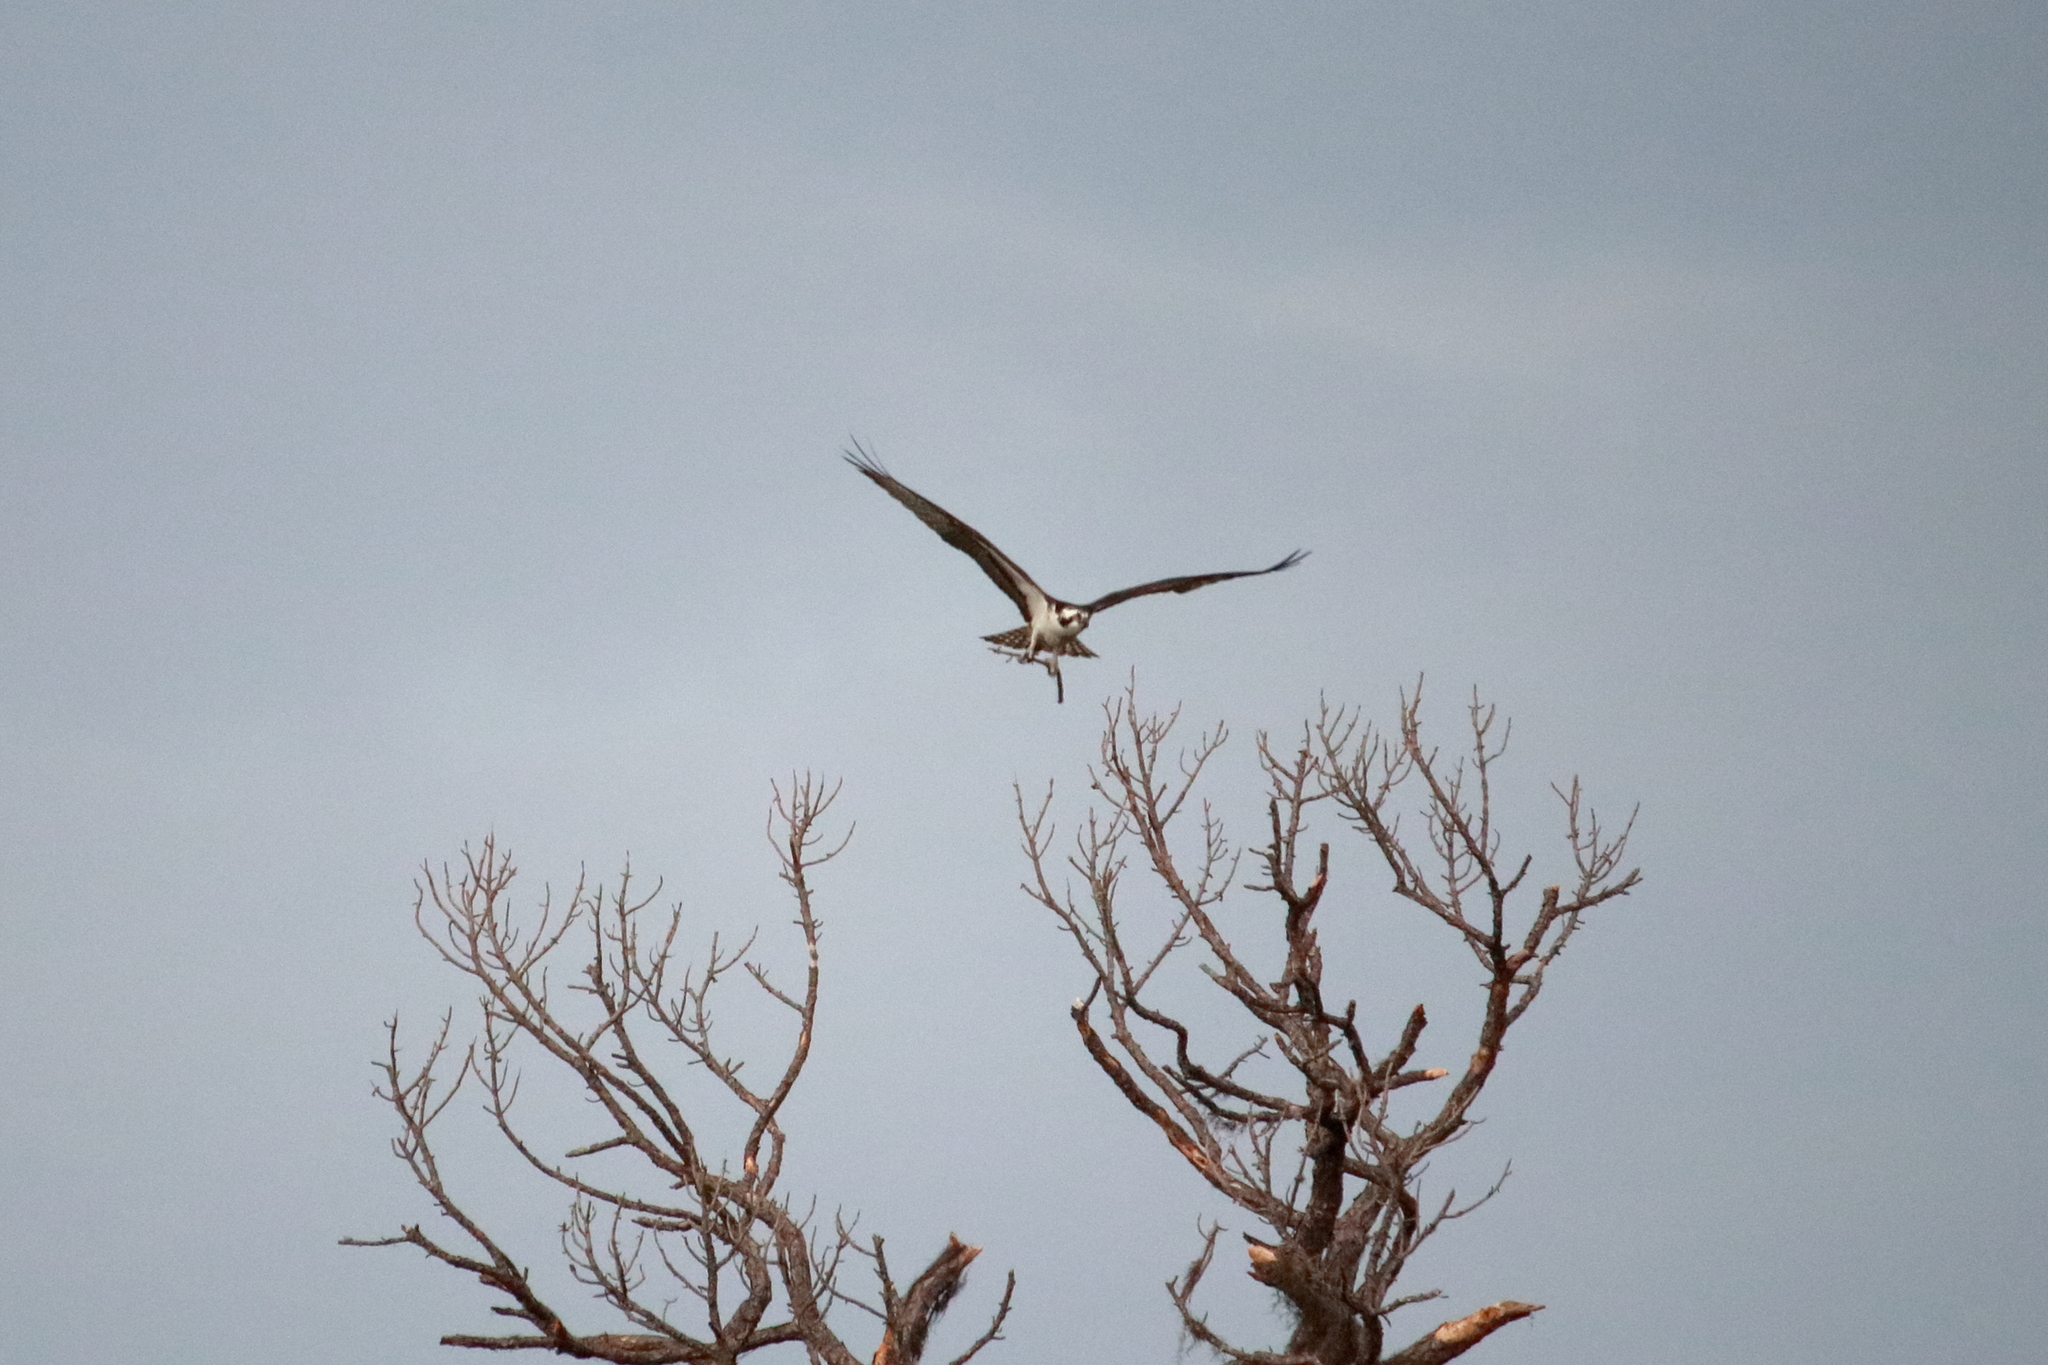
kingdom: Animalia
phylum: Chordata
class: Aves
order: Accipitriformes
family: Pandionidae
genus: Pandion
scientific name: Pandion haliaetus
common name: Osprey
